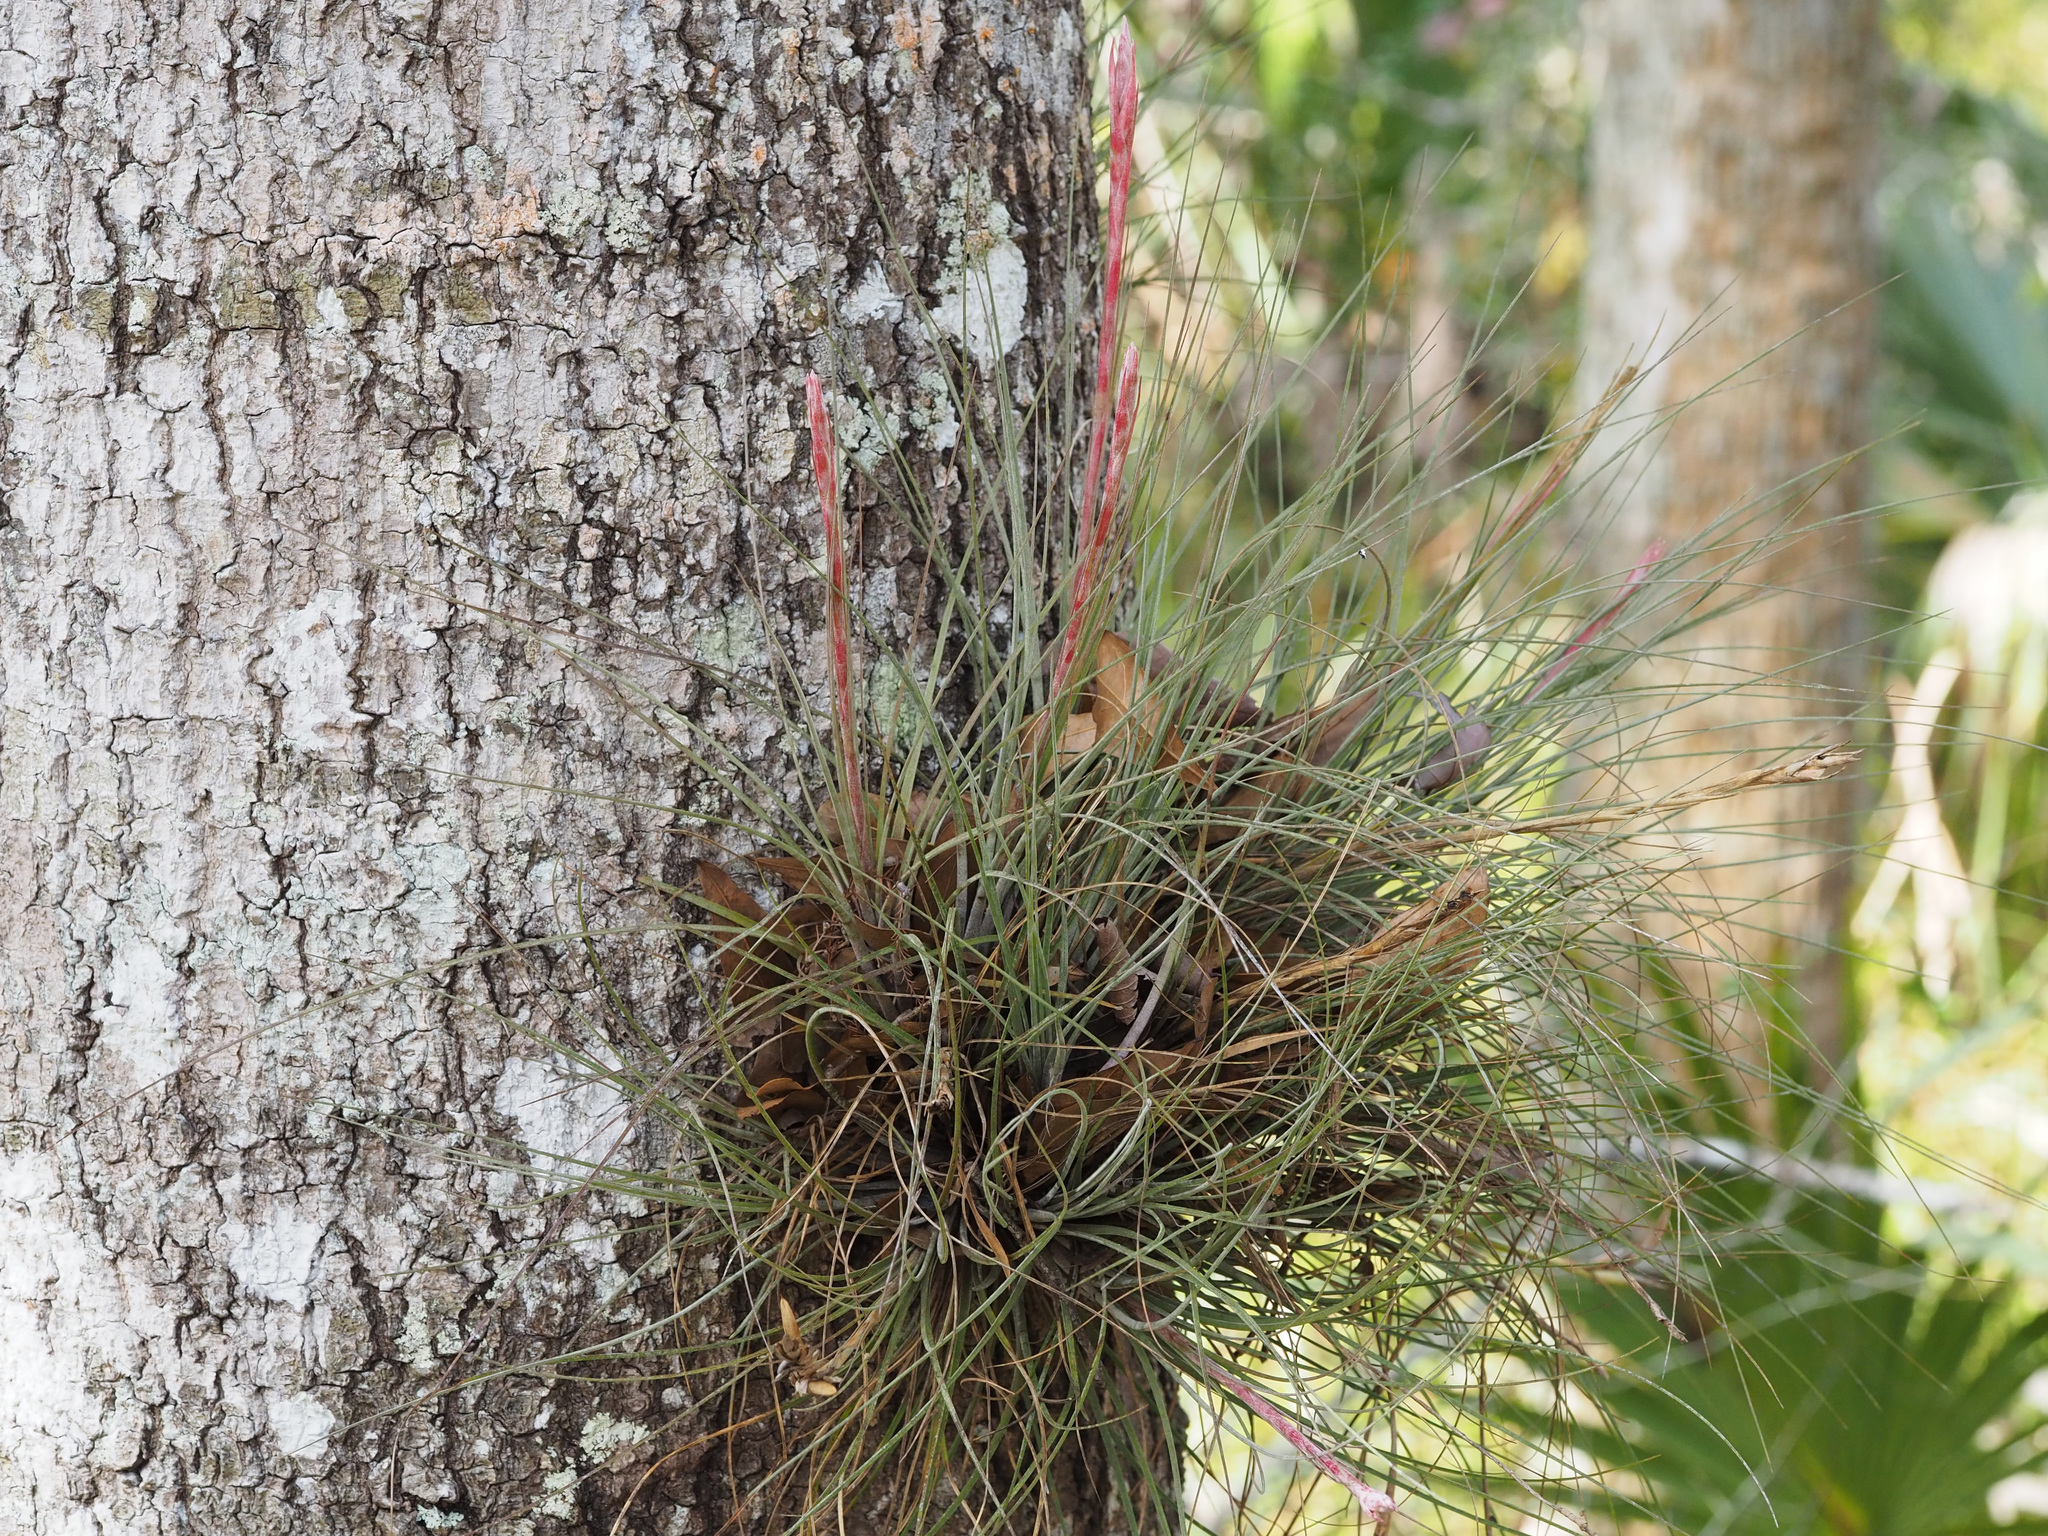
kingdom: Plantae
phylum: Tracheophyta
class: Liliopsida
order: Poales
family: Bromeliaceae
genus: Tillandsia
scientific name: Tillandsia bartramii
